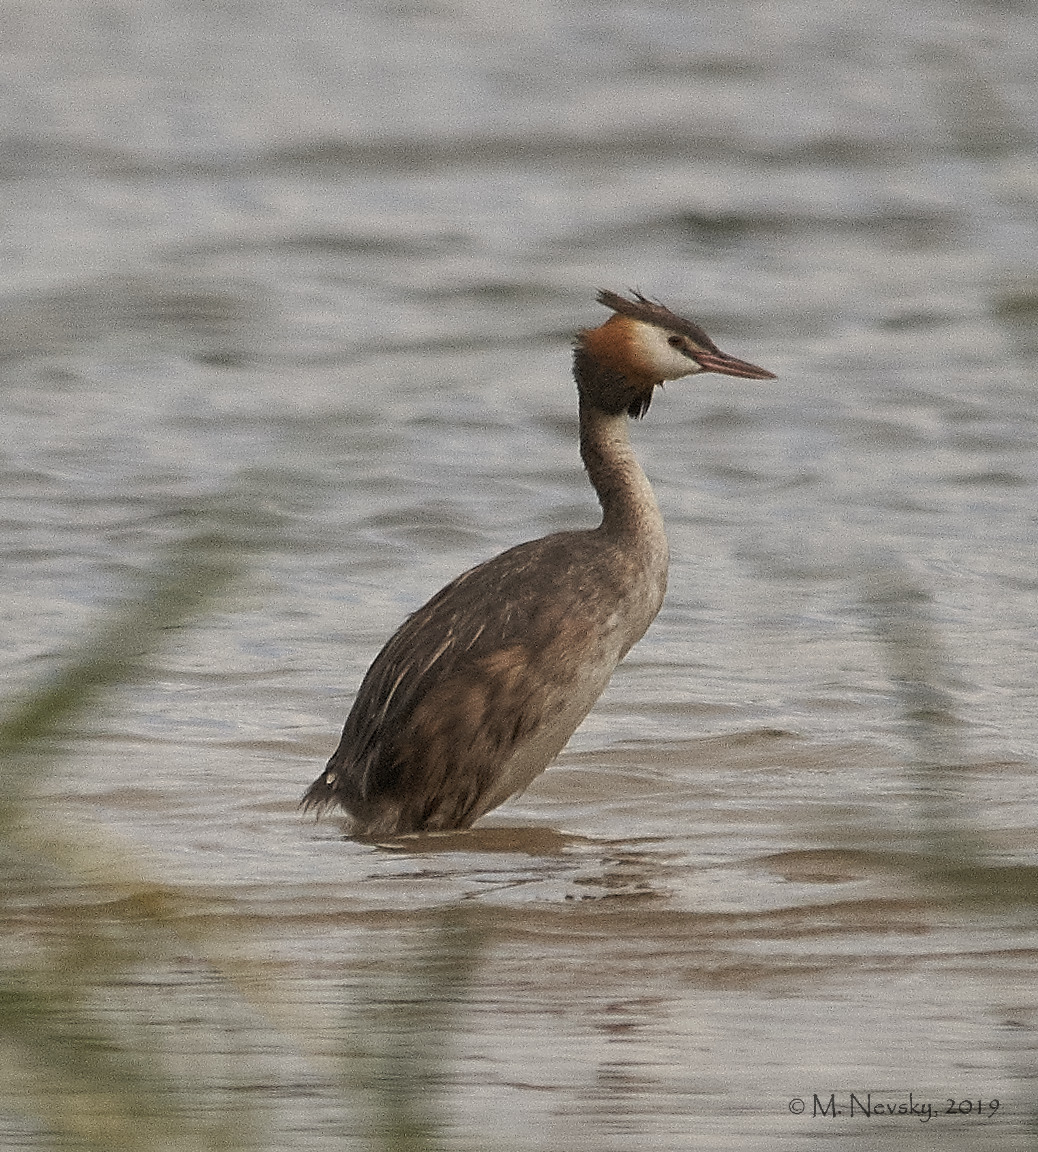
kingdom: Animalia
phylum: Chordata
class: Aves
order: Podicipediformes
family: Podicipedidae
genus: Podiceps
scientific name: Podiceps cristatus
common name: Great crested grebe
